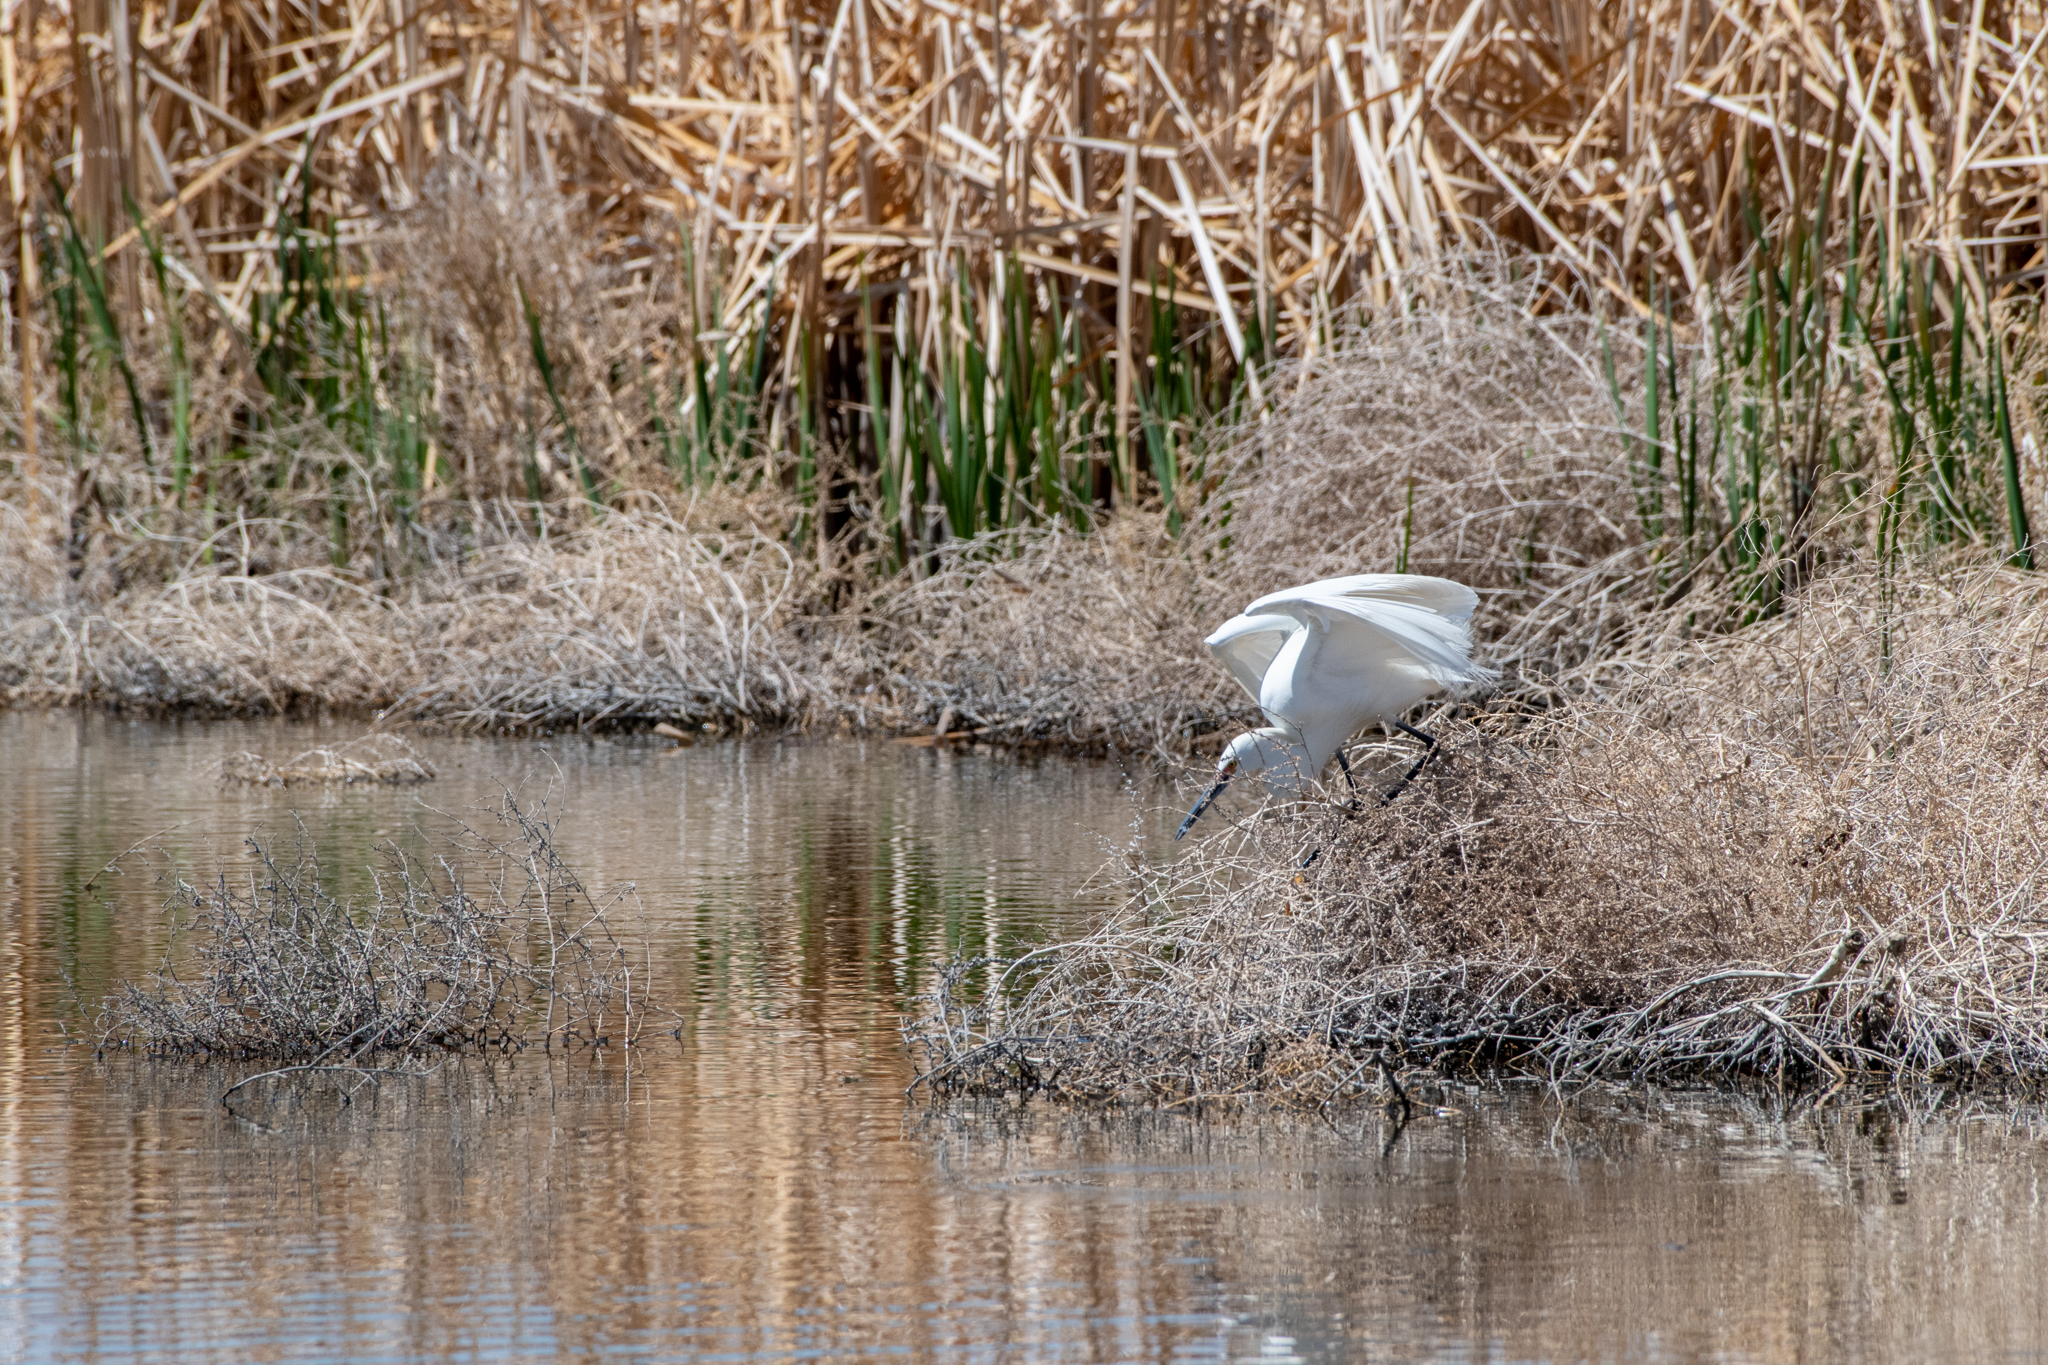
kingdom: Animalia
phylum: Chordata
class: Aves
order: Pelecaniformes
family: Ardeidae
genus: Egretta
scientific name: Egretta thula
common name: Snowy egret
